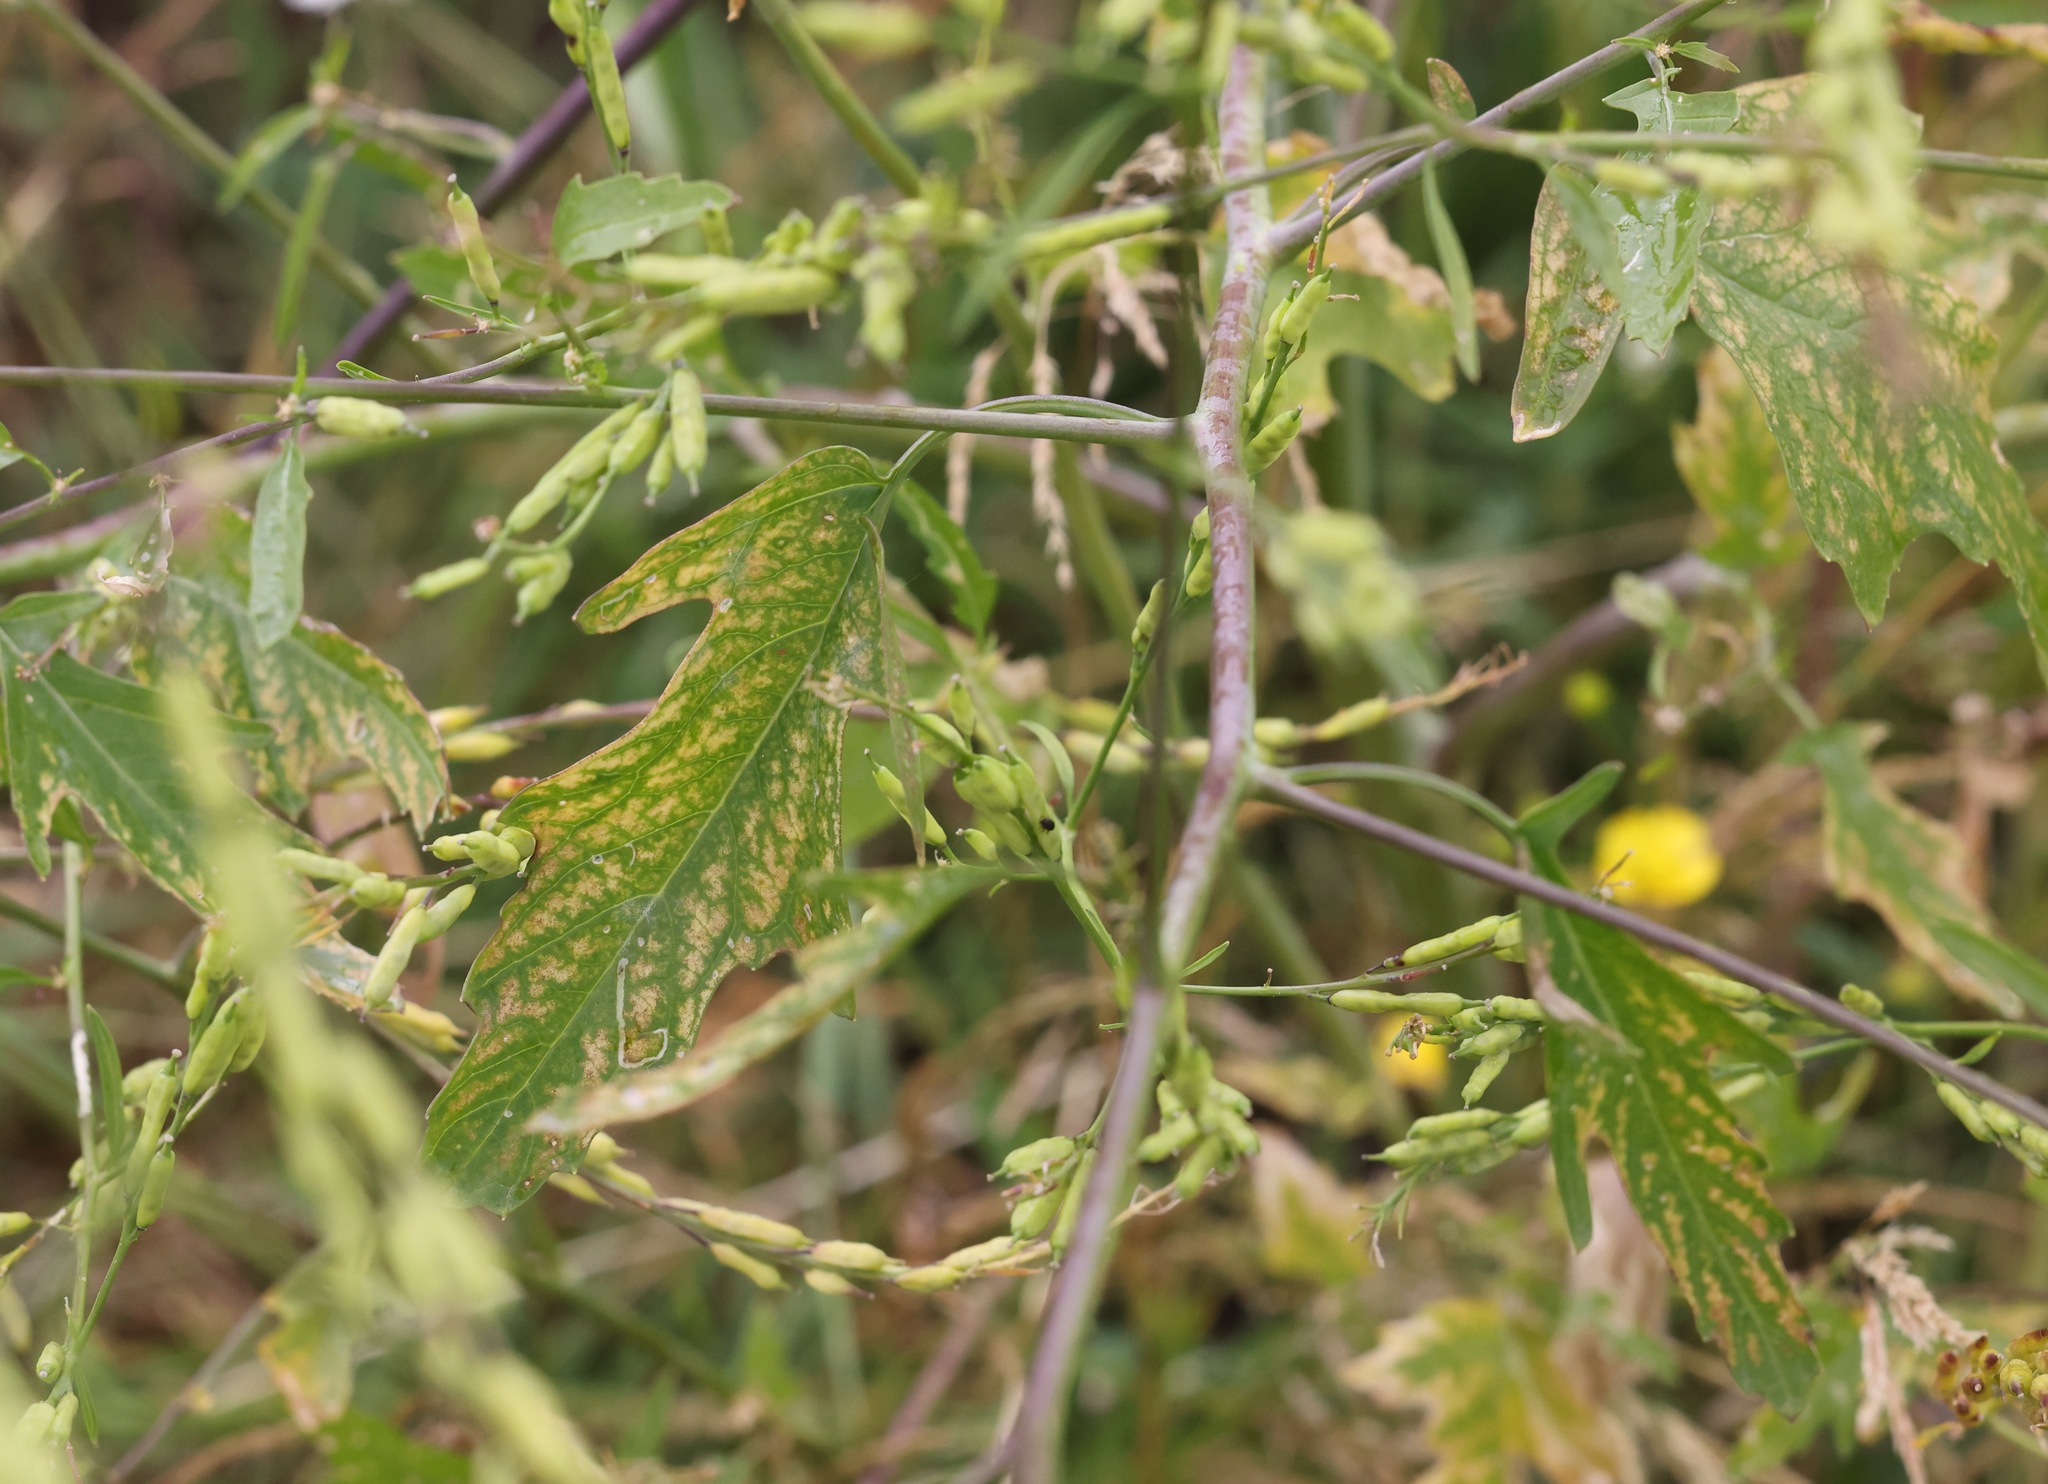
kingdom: Plantae
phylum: Tracheophyta
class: Magnoliopsida
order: Brassicales
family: Brassicaceae
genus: Brassica
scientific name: Brassica nigra
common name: Black mustard
